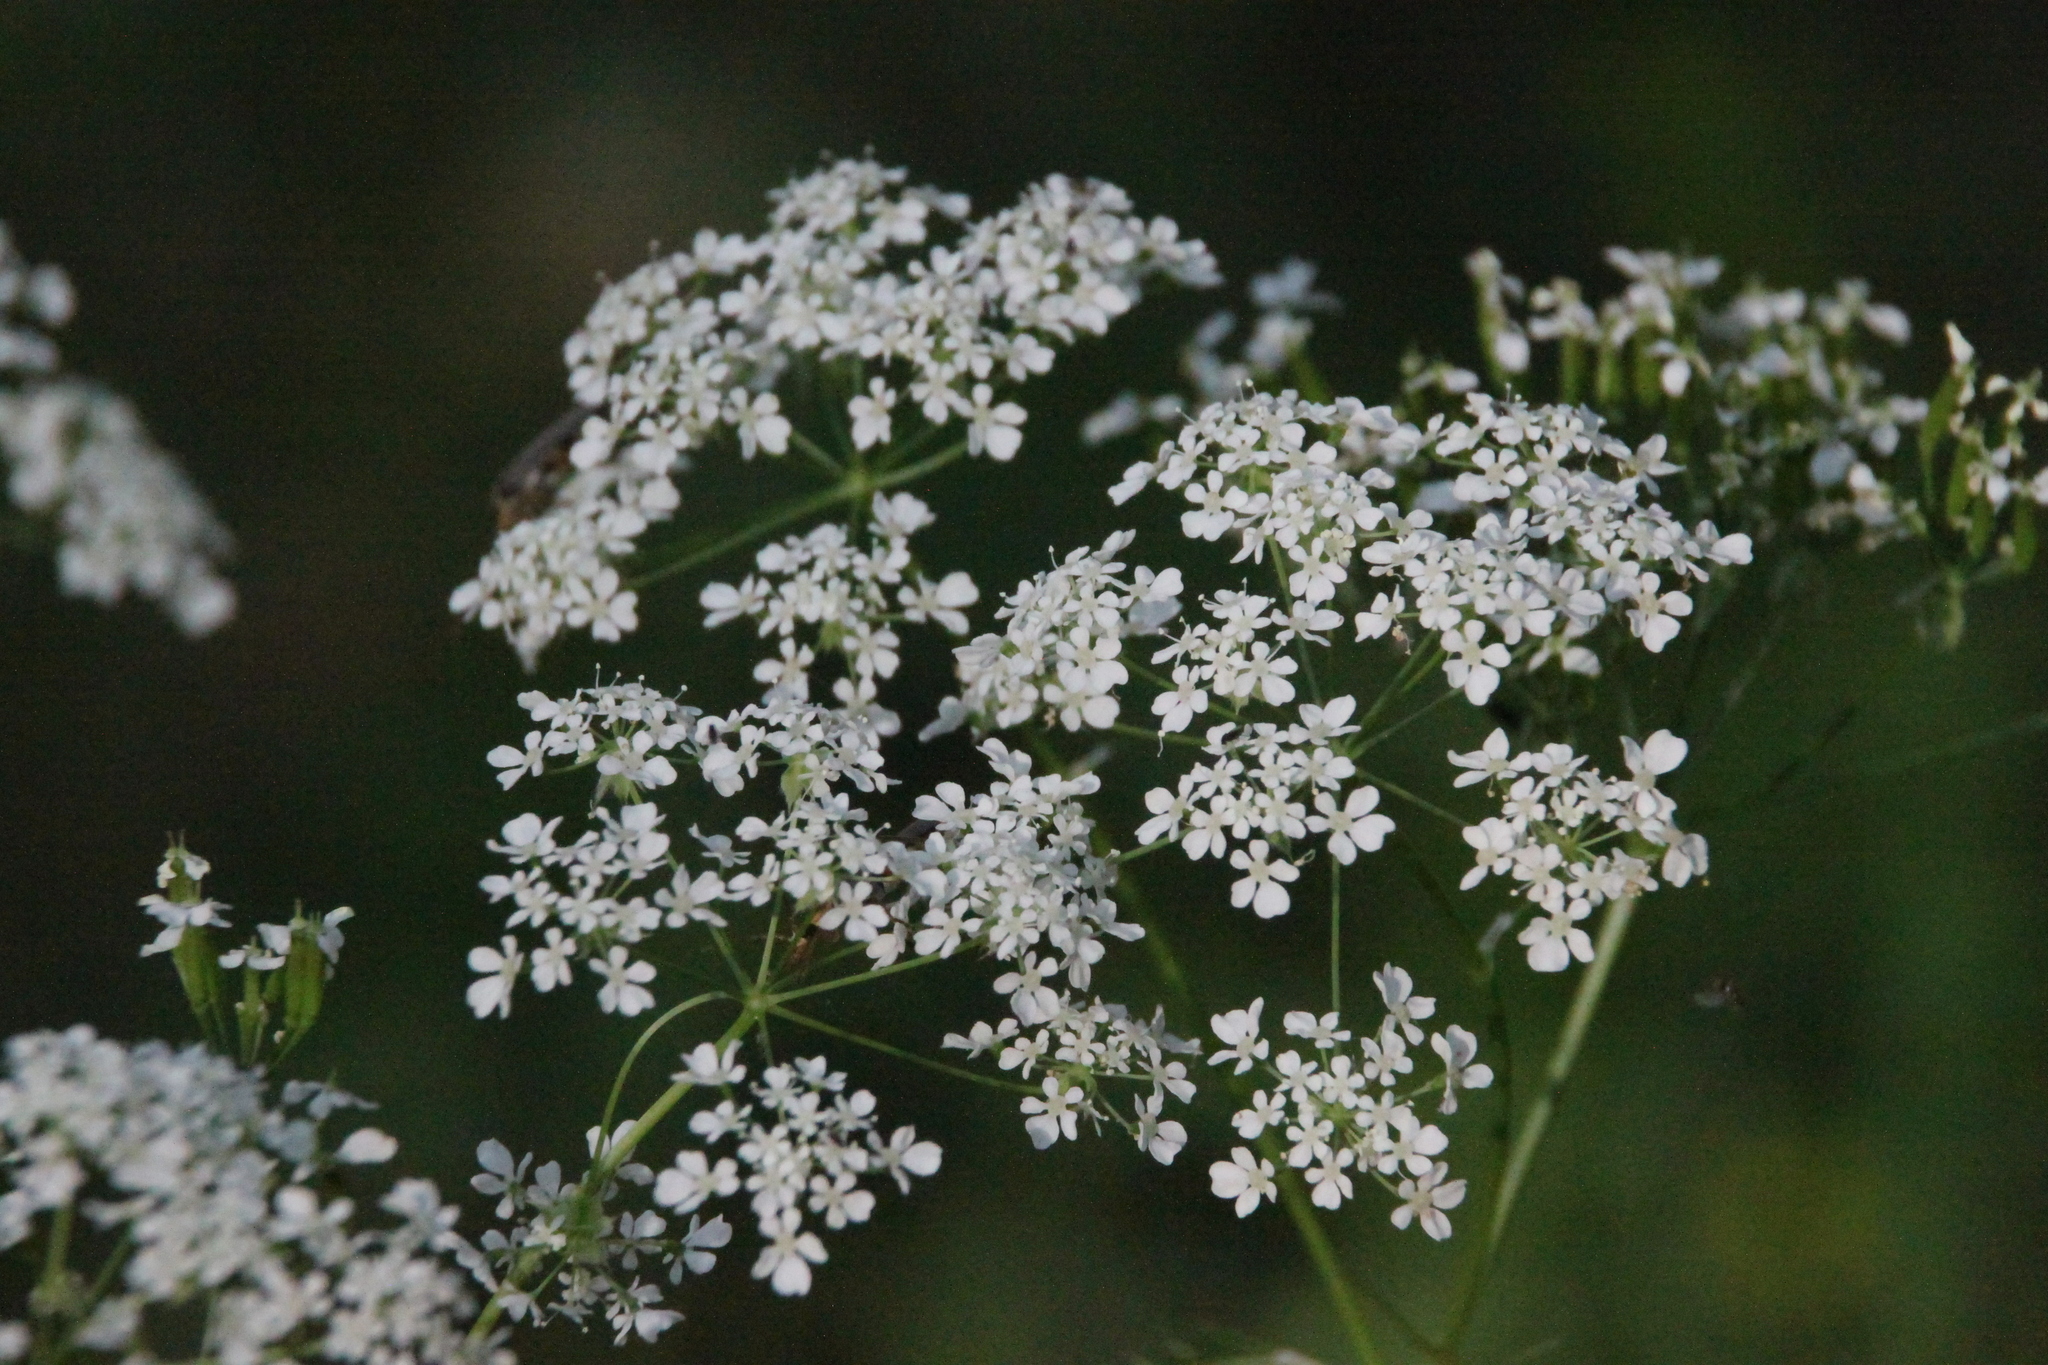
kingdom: Plantae
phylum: Tracheophyta
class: Magnoliopsida
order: Apiales
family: Apiaceae
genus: Anthriscus
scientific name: Anthriscus sylvestris
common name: Cow parsley
